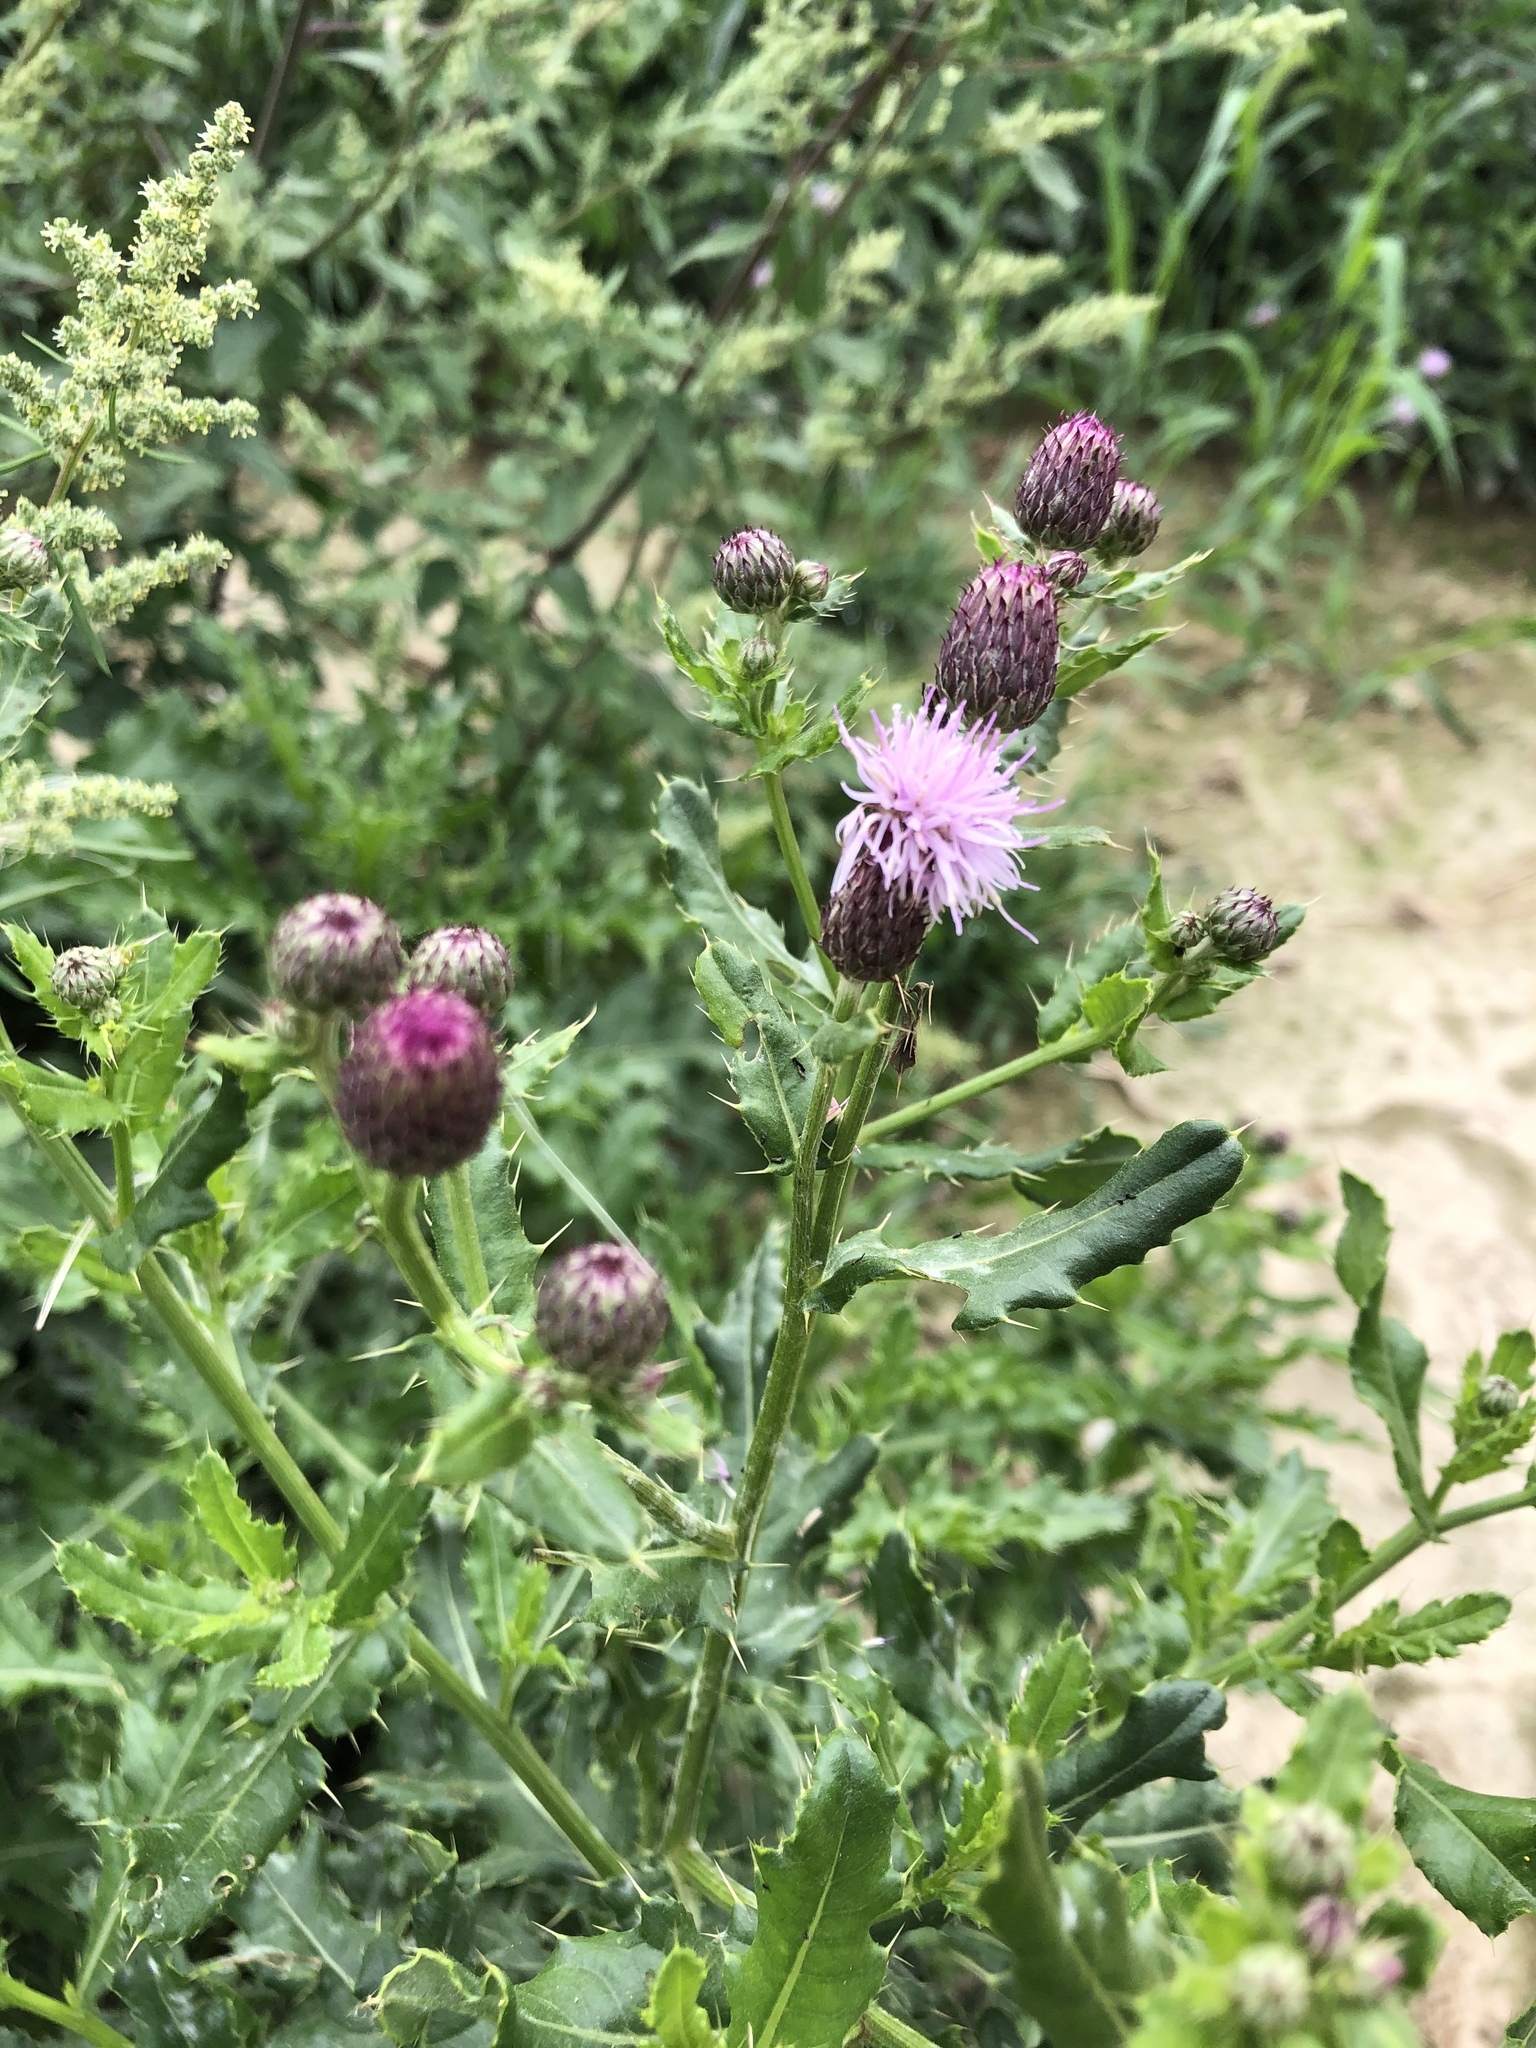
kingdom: Plantae
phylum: Tracheophyta
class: Magnoliopsida
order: Asterales
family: Asteraceae
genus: Cirsium
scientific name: Cirsium arvense
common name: Creeping thistle
